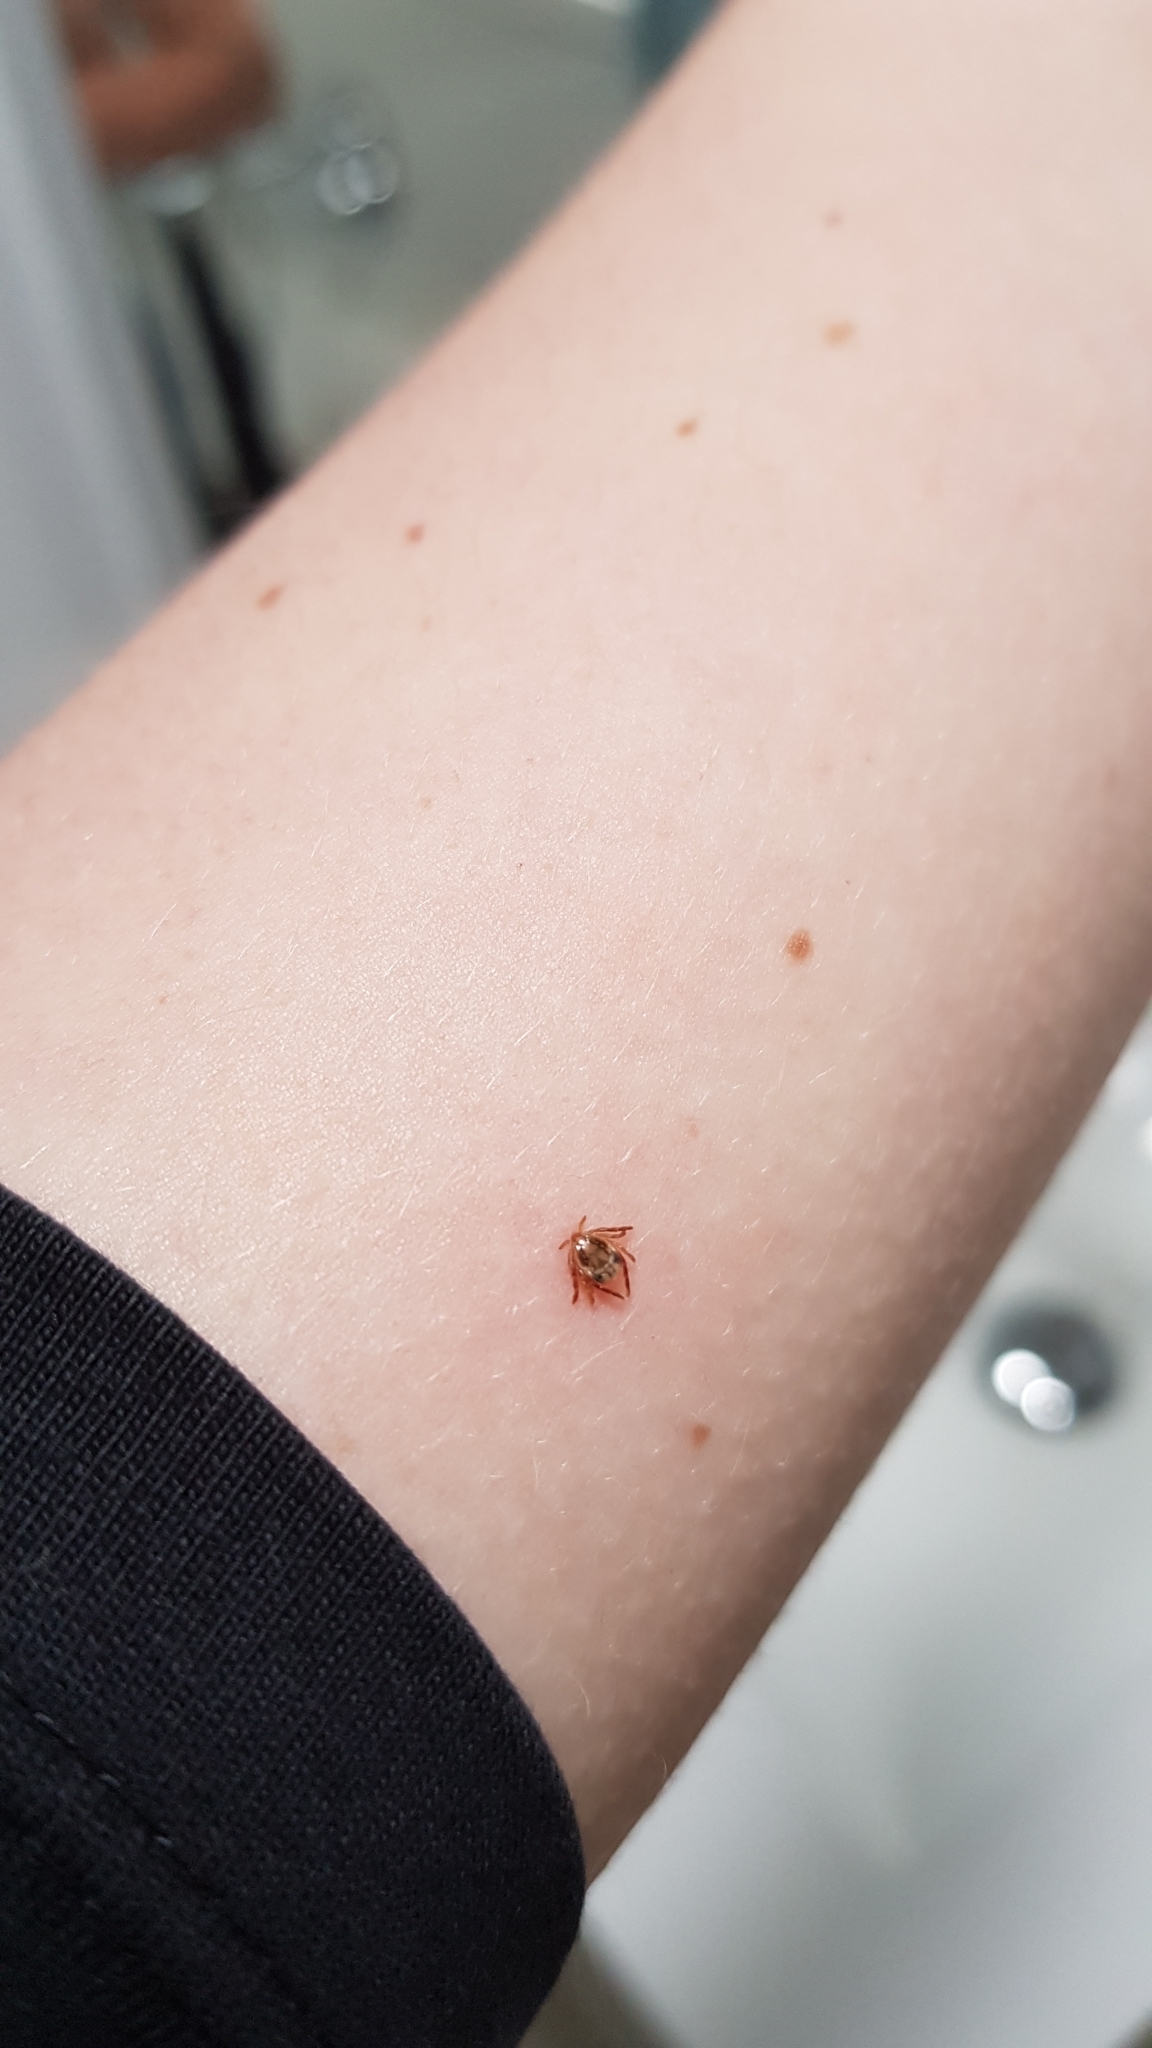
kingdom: Animalia
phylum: Arthropoda
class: Arachnida
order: Ixodida
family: Ixodidae
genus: Ixodes
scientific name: Ixodes holocyclus
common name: Australian paralysis tick
